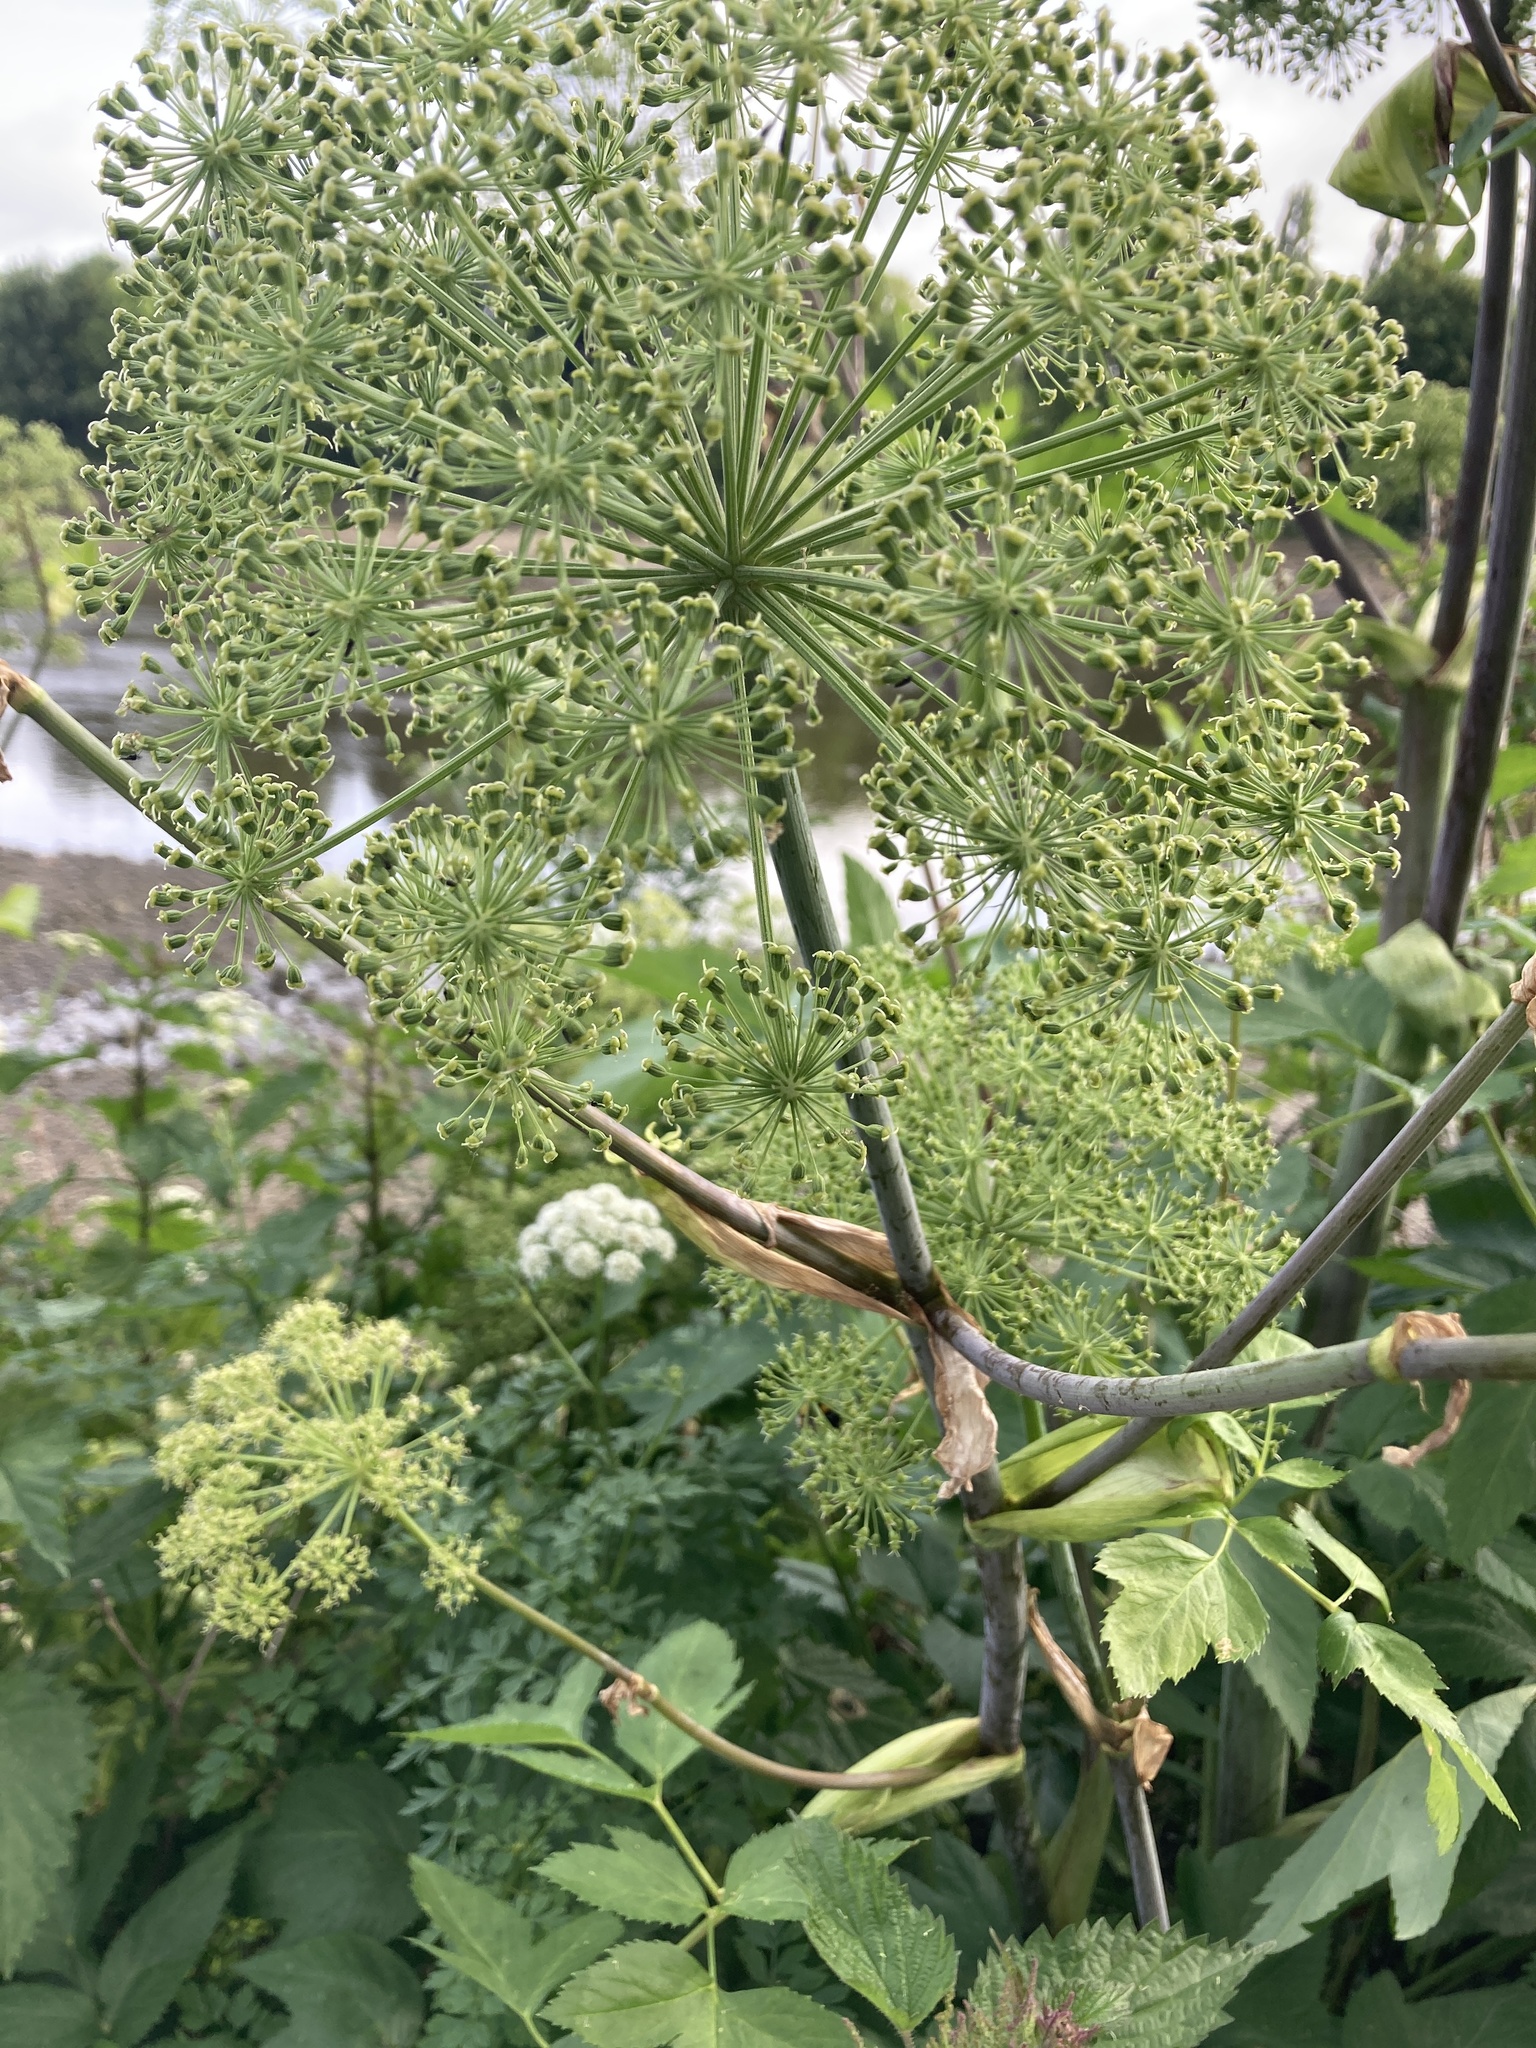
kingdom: Plantae
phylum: Tracheophyta
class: Magnoliopsida
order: Apiales
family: Apiaceae
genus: Angelica
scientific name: Angelica archangelica
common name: Garden angelica
